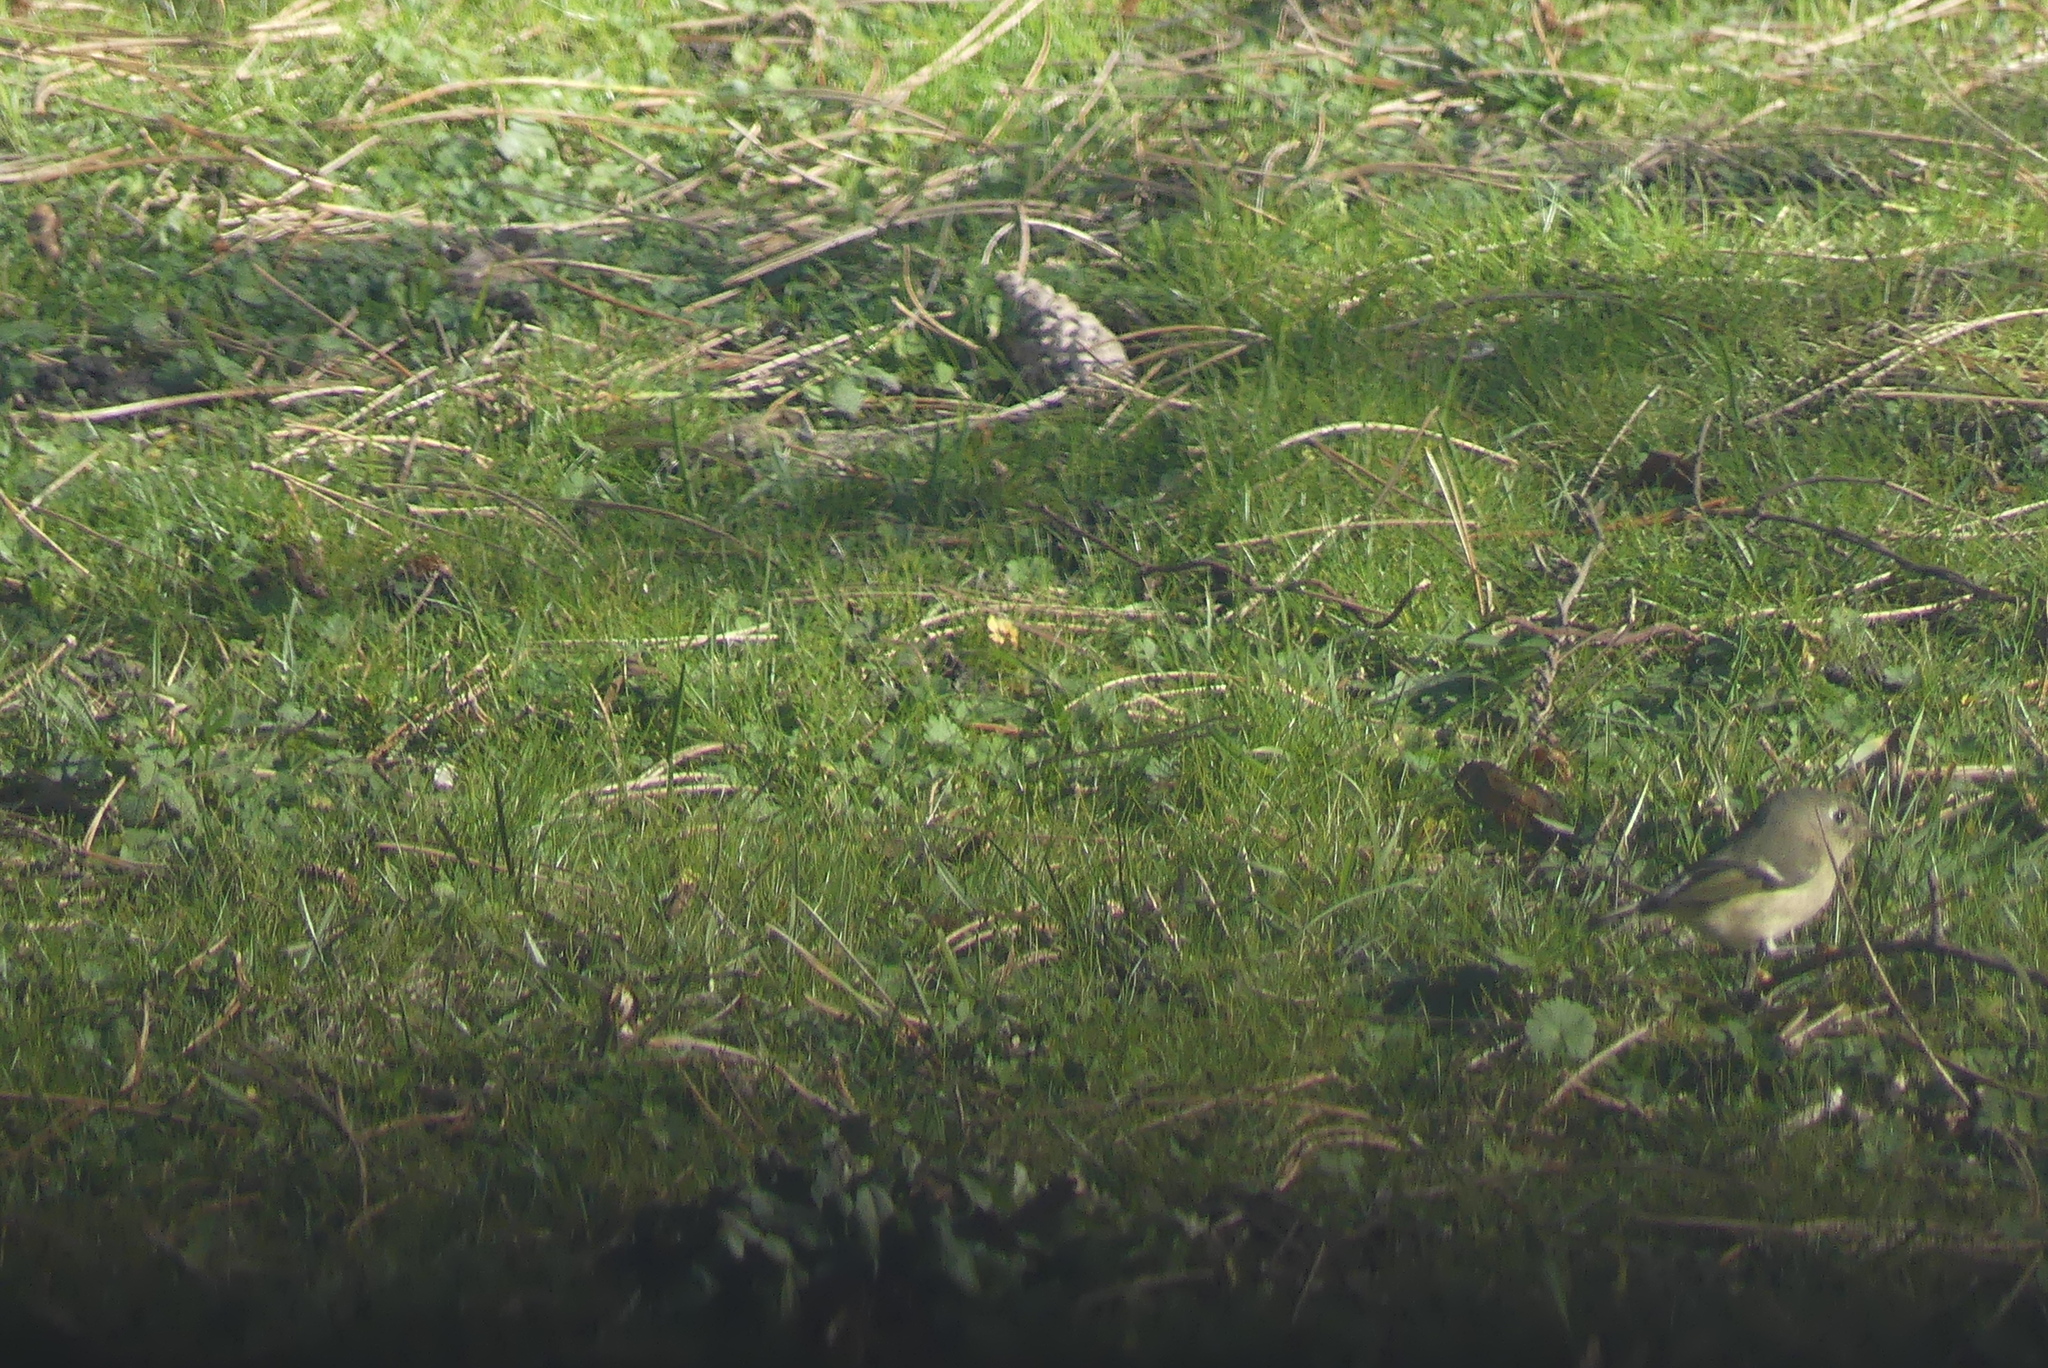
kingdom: Animalia
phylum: Chordata
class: Aves
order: Passeriformes
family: Regulidae
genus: Regulus
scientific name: Regulus calendula
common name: Ruby-crowned kinglet
